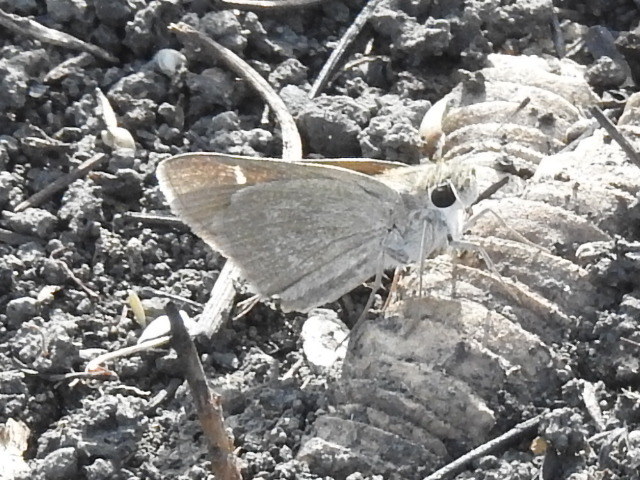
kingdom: Animalia
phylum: Arthropoda
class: Insecta
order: Lepidoptera
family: Hesperiidae
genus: Lerodea
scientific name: Lerodea eufala
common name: Eufala skipper
